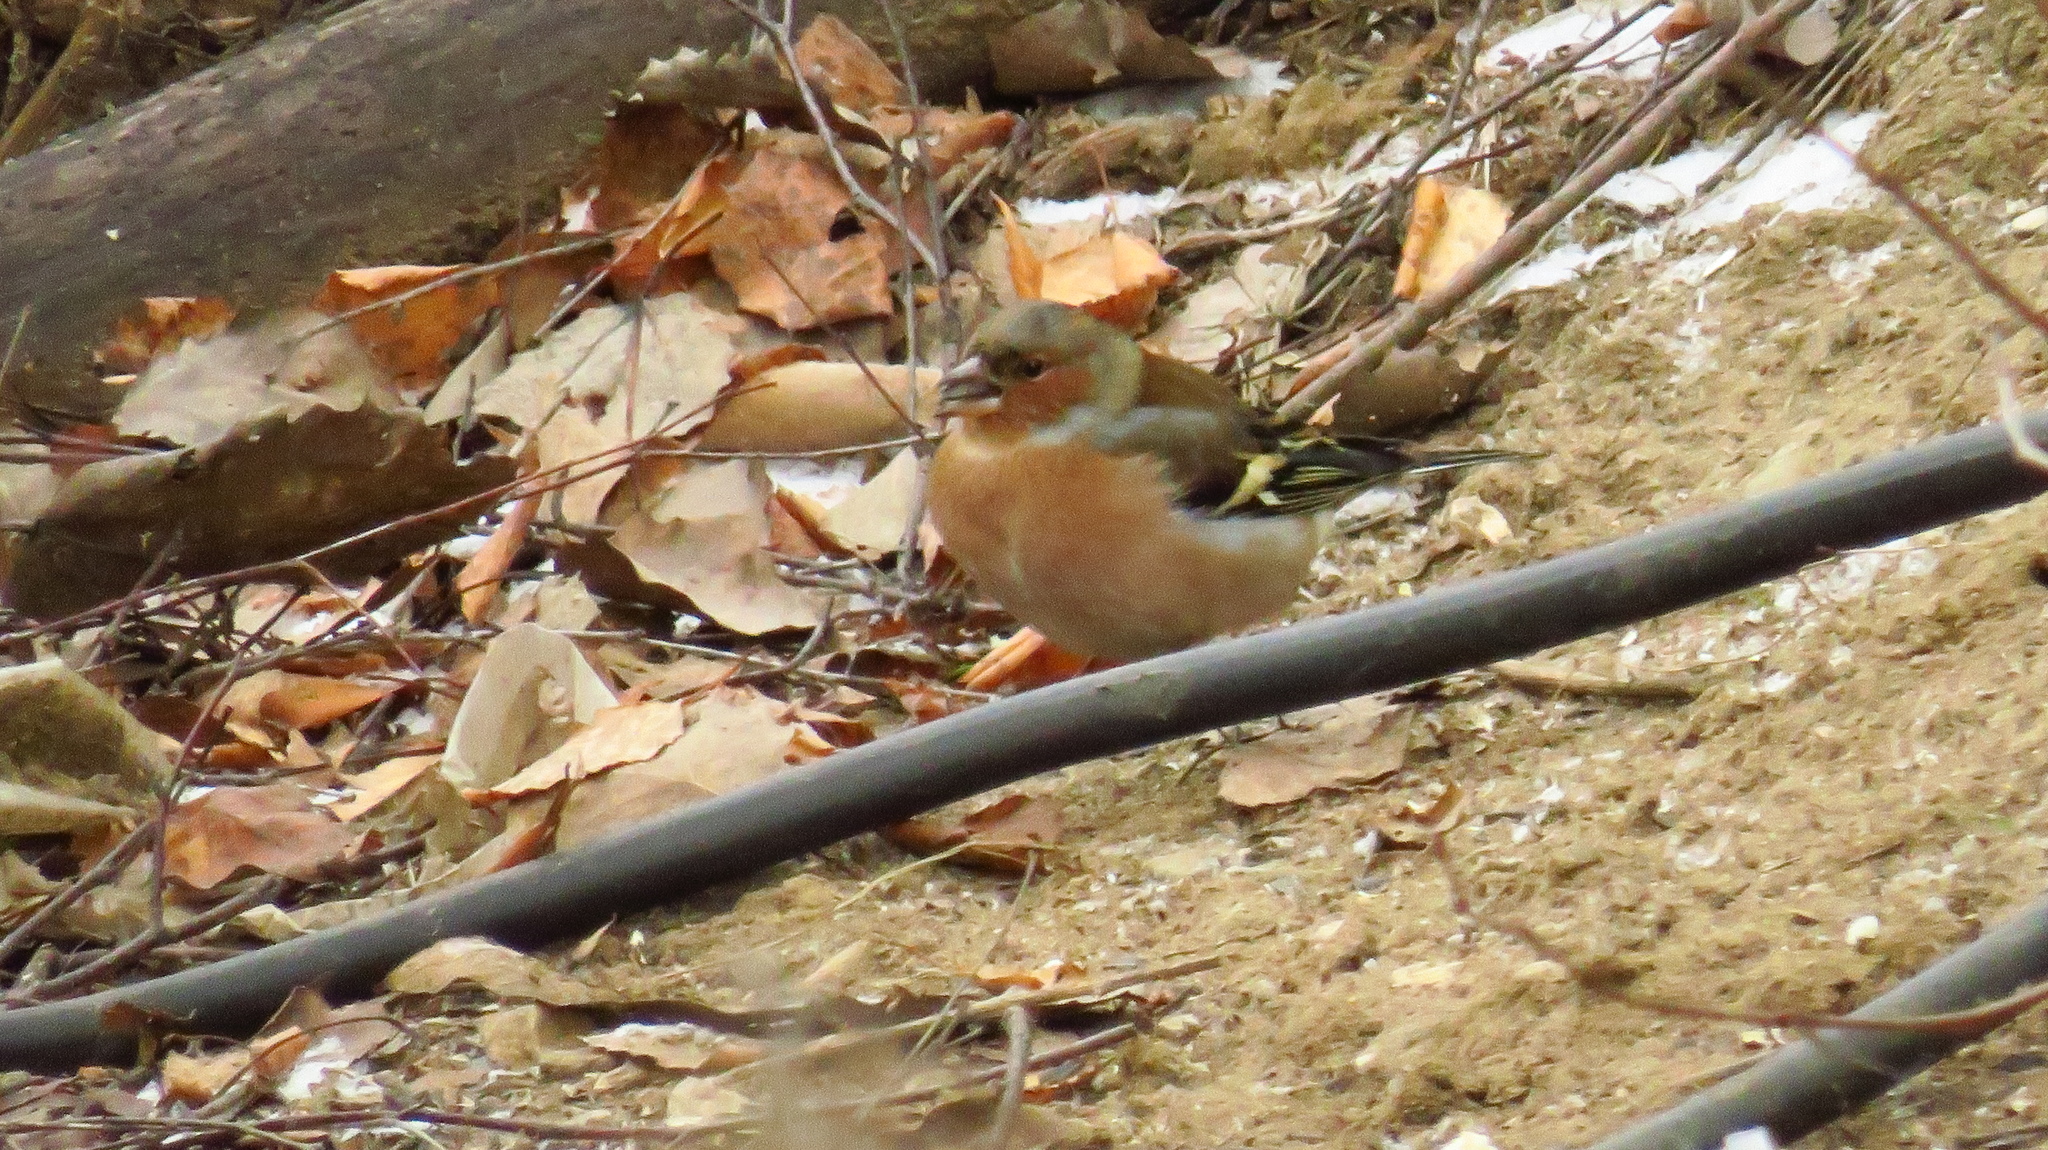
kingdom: Animalia
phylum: Chordata
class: Aves
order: Passeriformes
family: Fringillidae
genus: Fringilla
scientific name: Fringilla coelebs
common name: Common chaffinch
